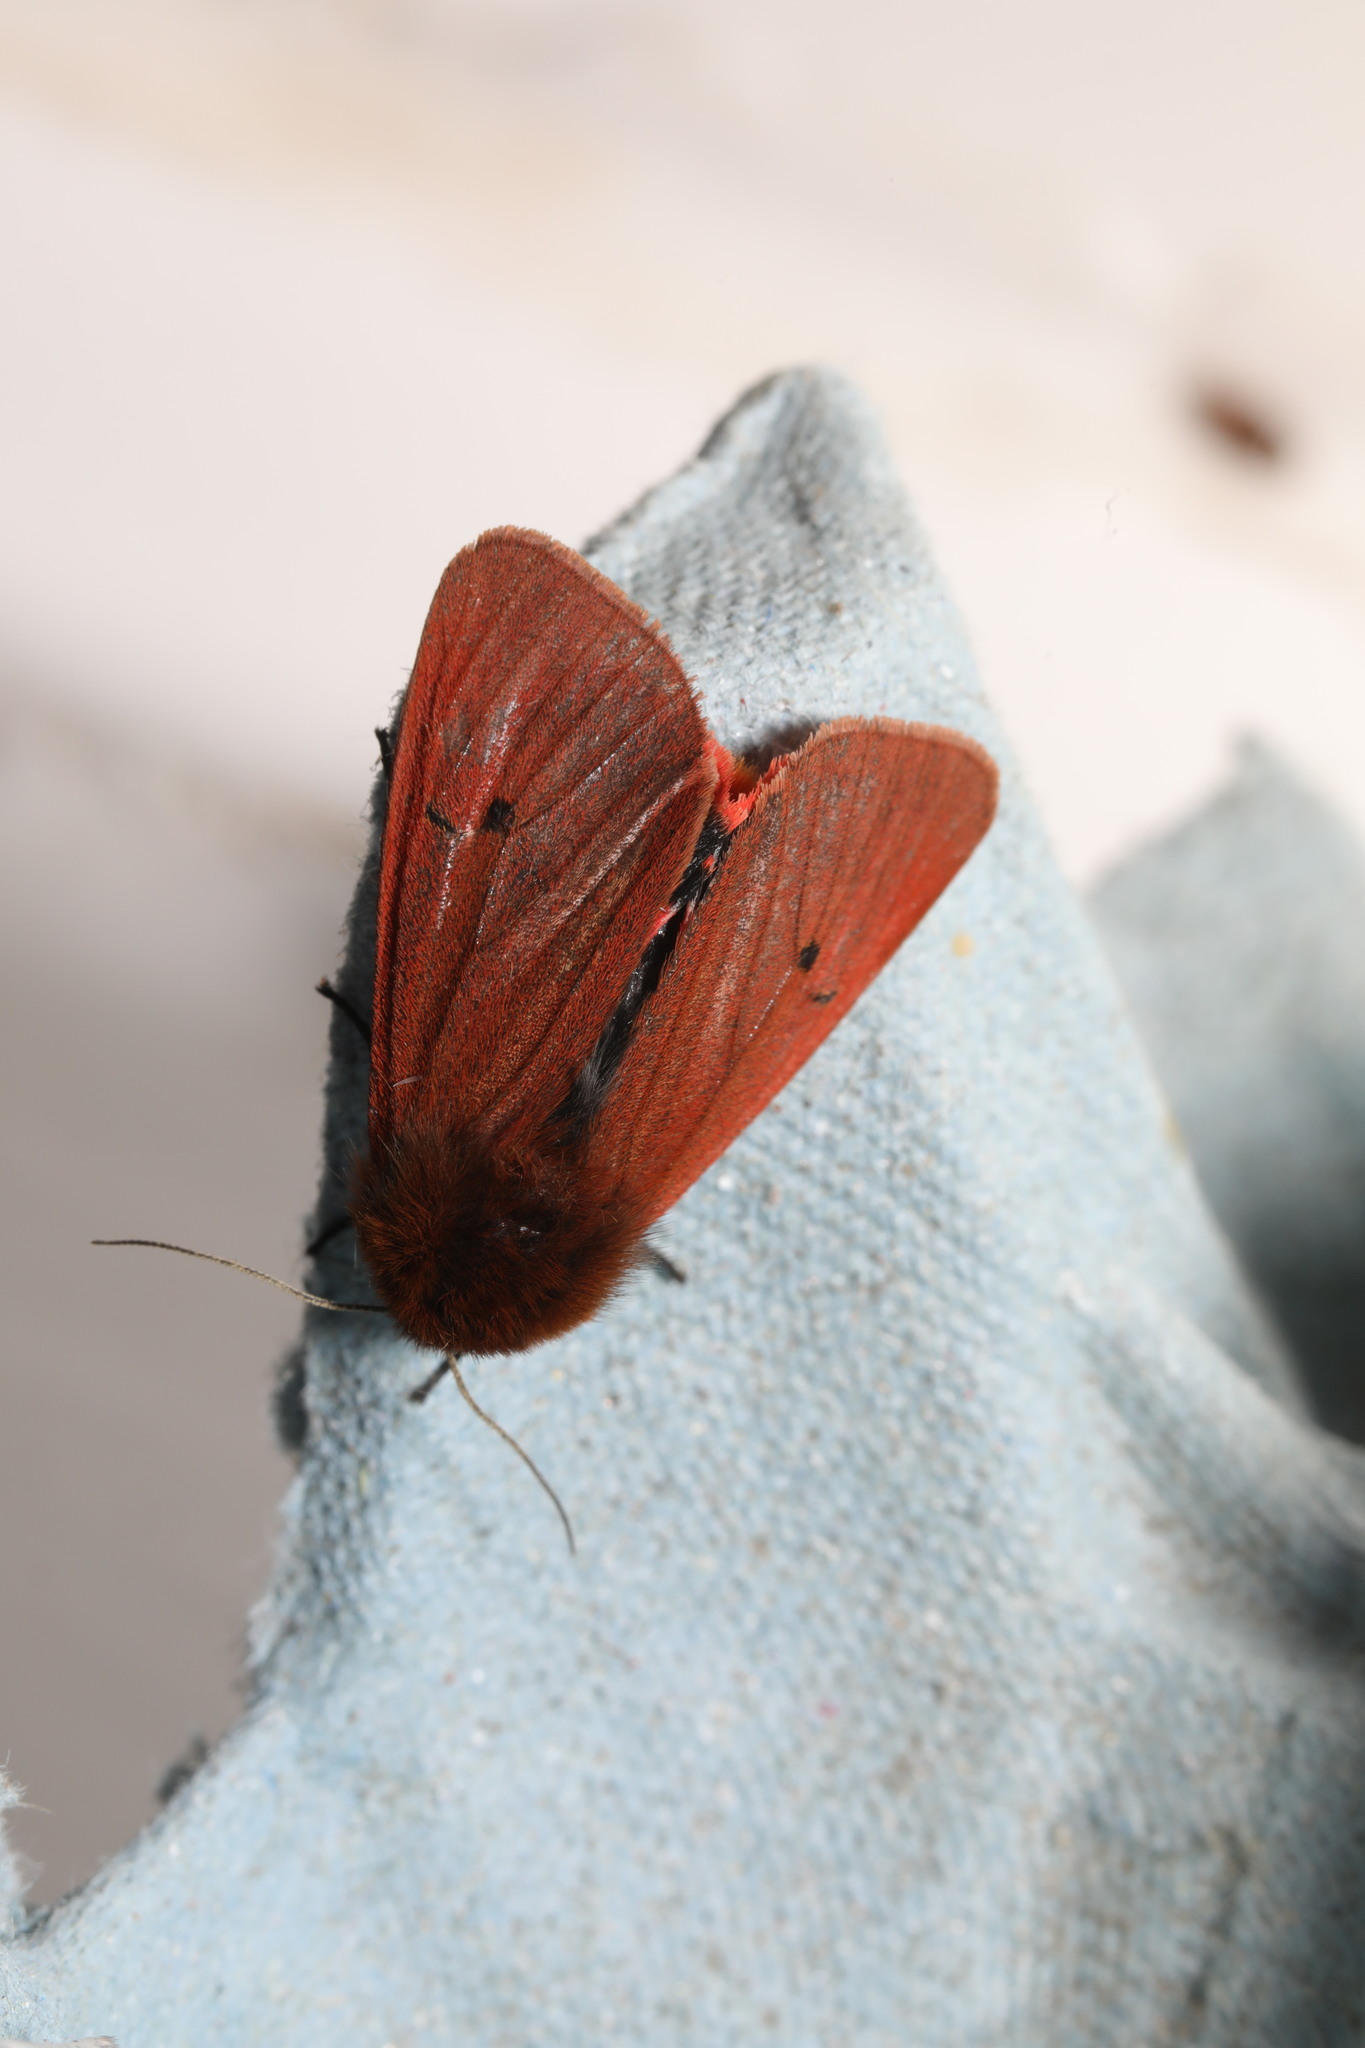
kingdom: Animalia
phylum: Arthropoda
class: Insecta
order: Lepidoptera
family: Erebidae
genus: Phragmatobia
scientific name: Phragmatobia fuliginosa
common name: Ruby tiger
